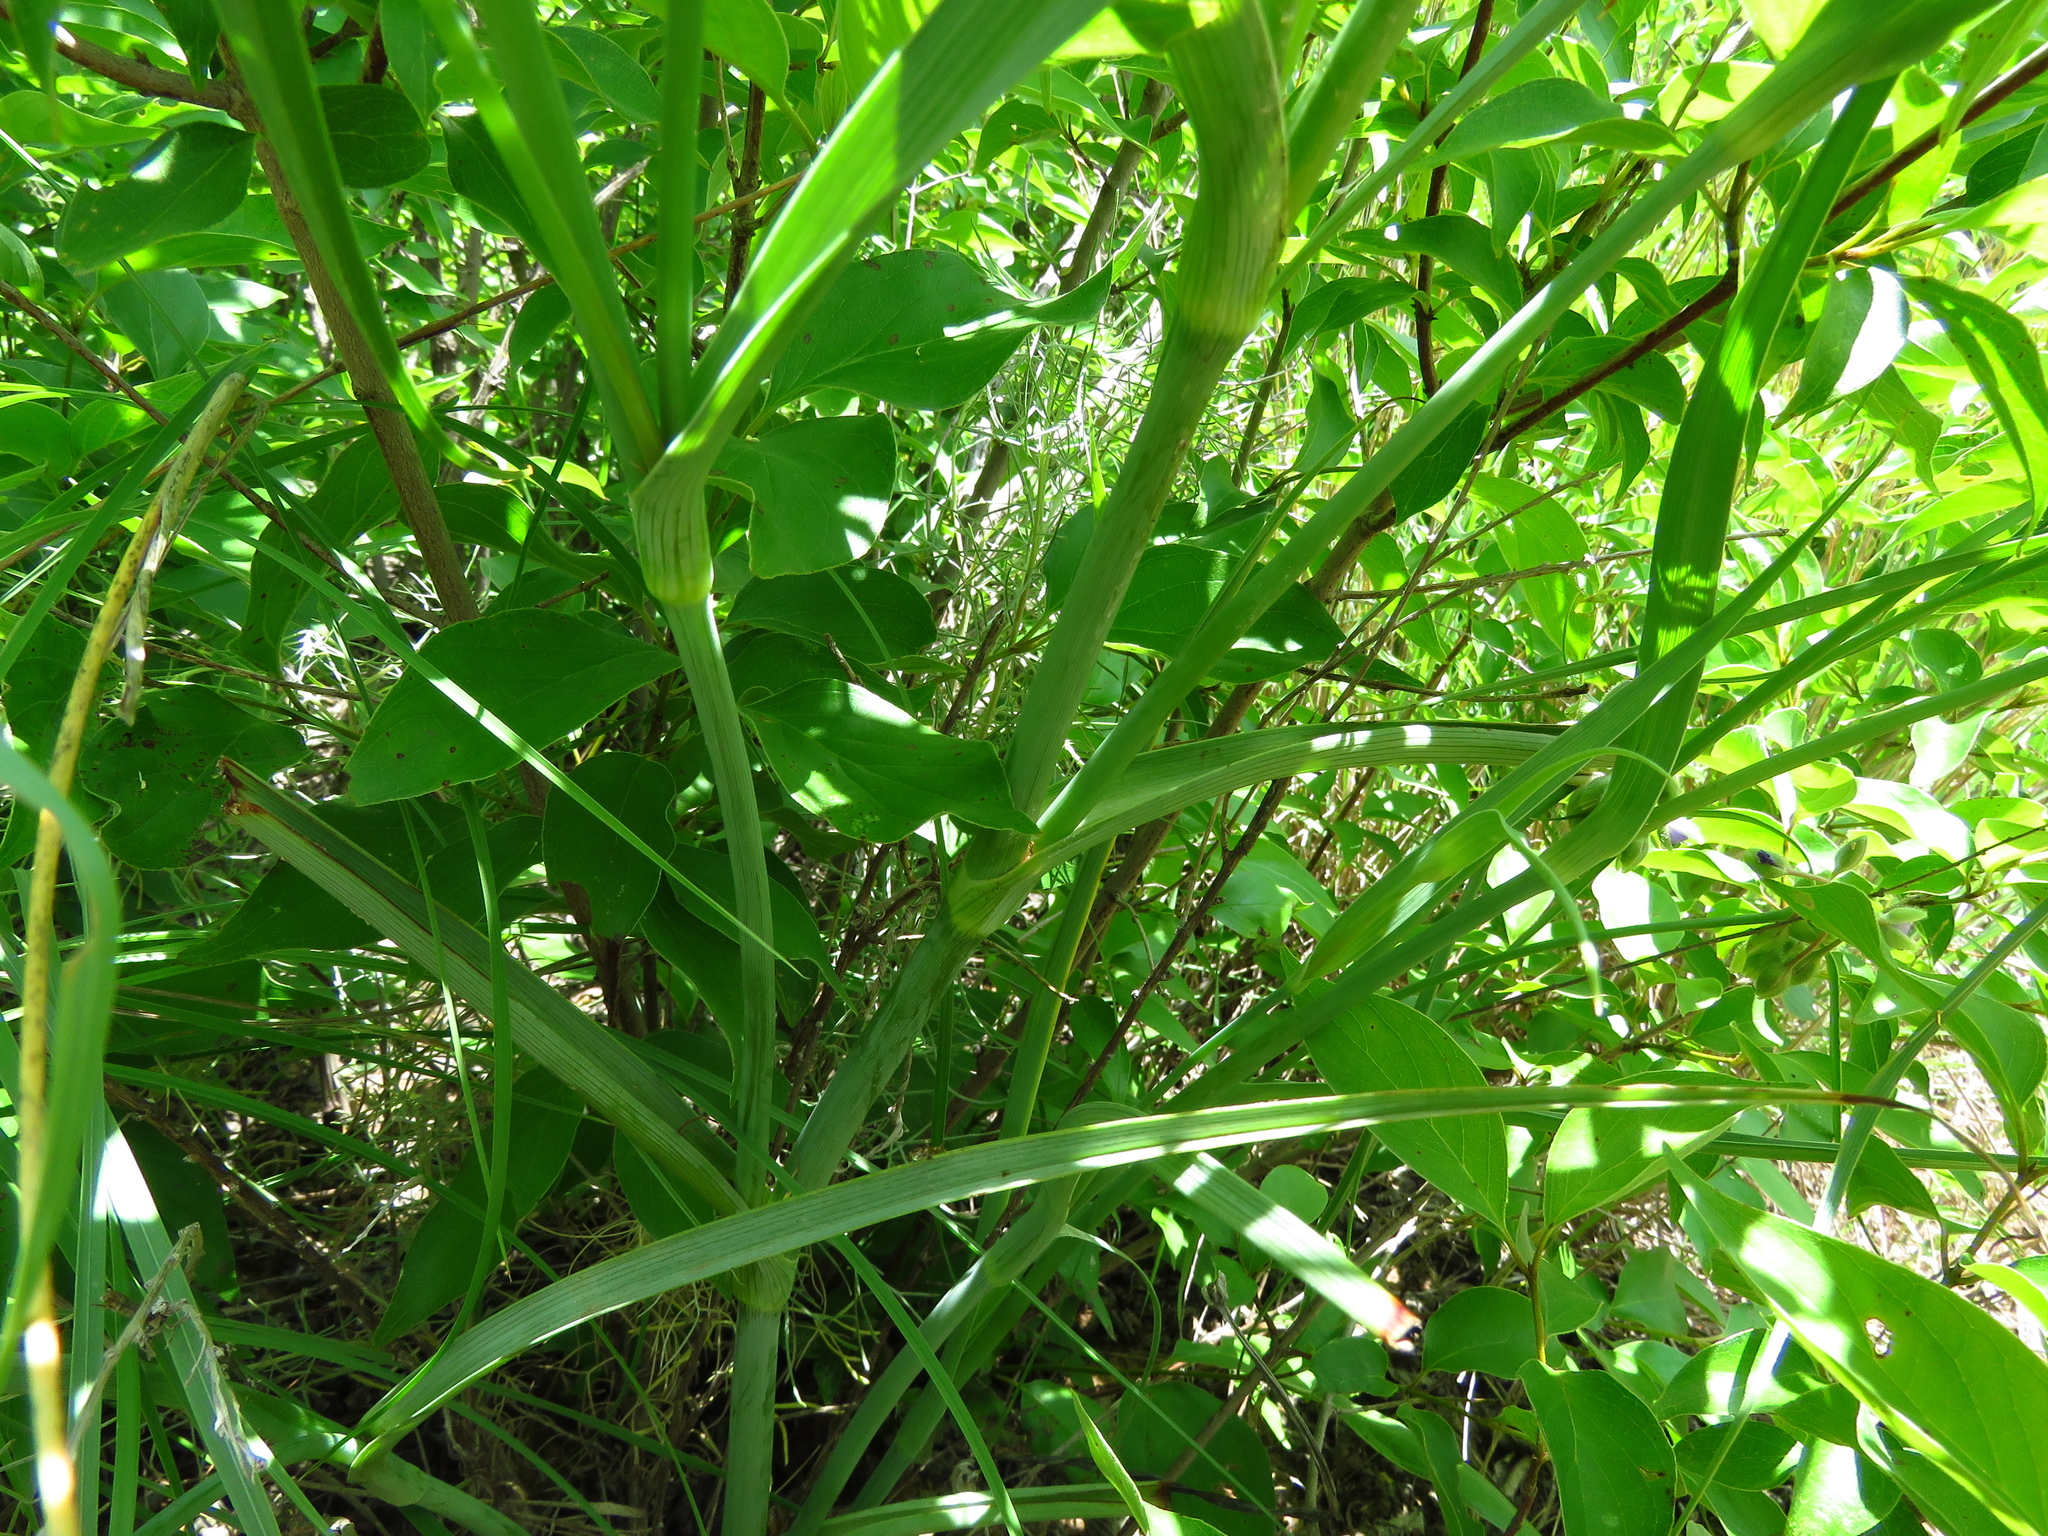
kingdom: Plantae
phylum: Tracheophyta
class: Liliopsida
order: Commelinales
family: Commelinaceae
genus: Tradescantia
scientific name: Tradescantia occidentalis
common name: Prairie spiderwort
